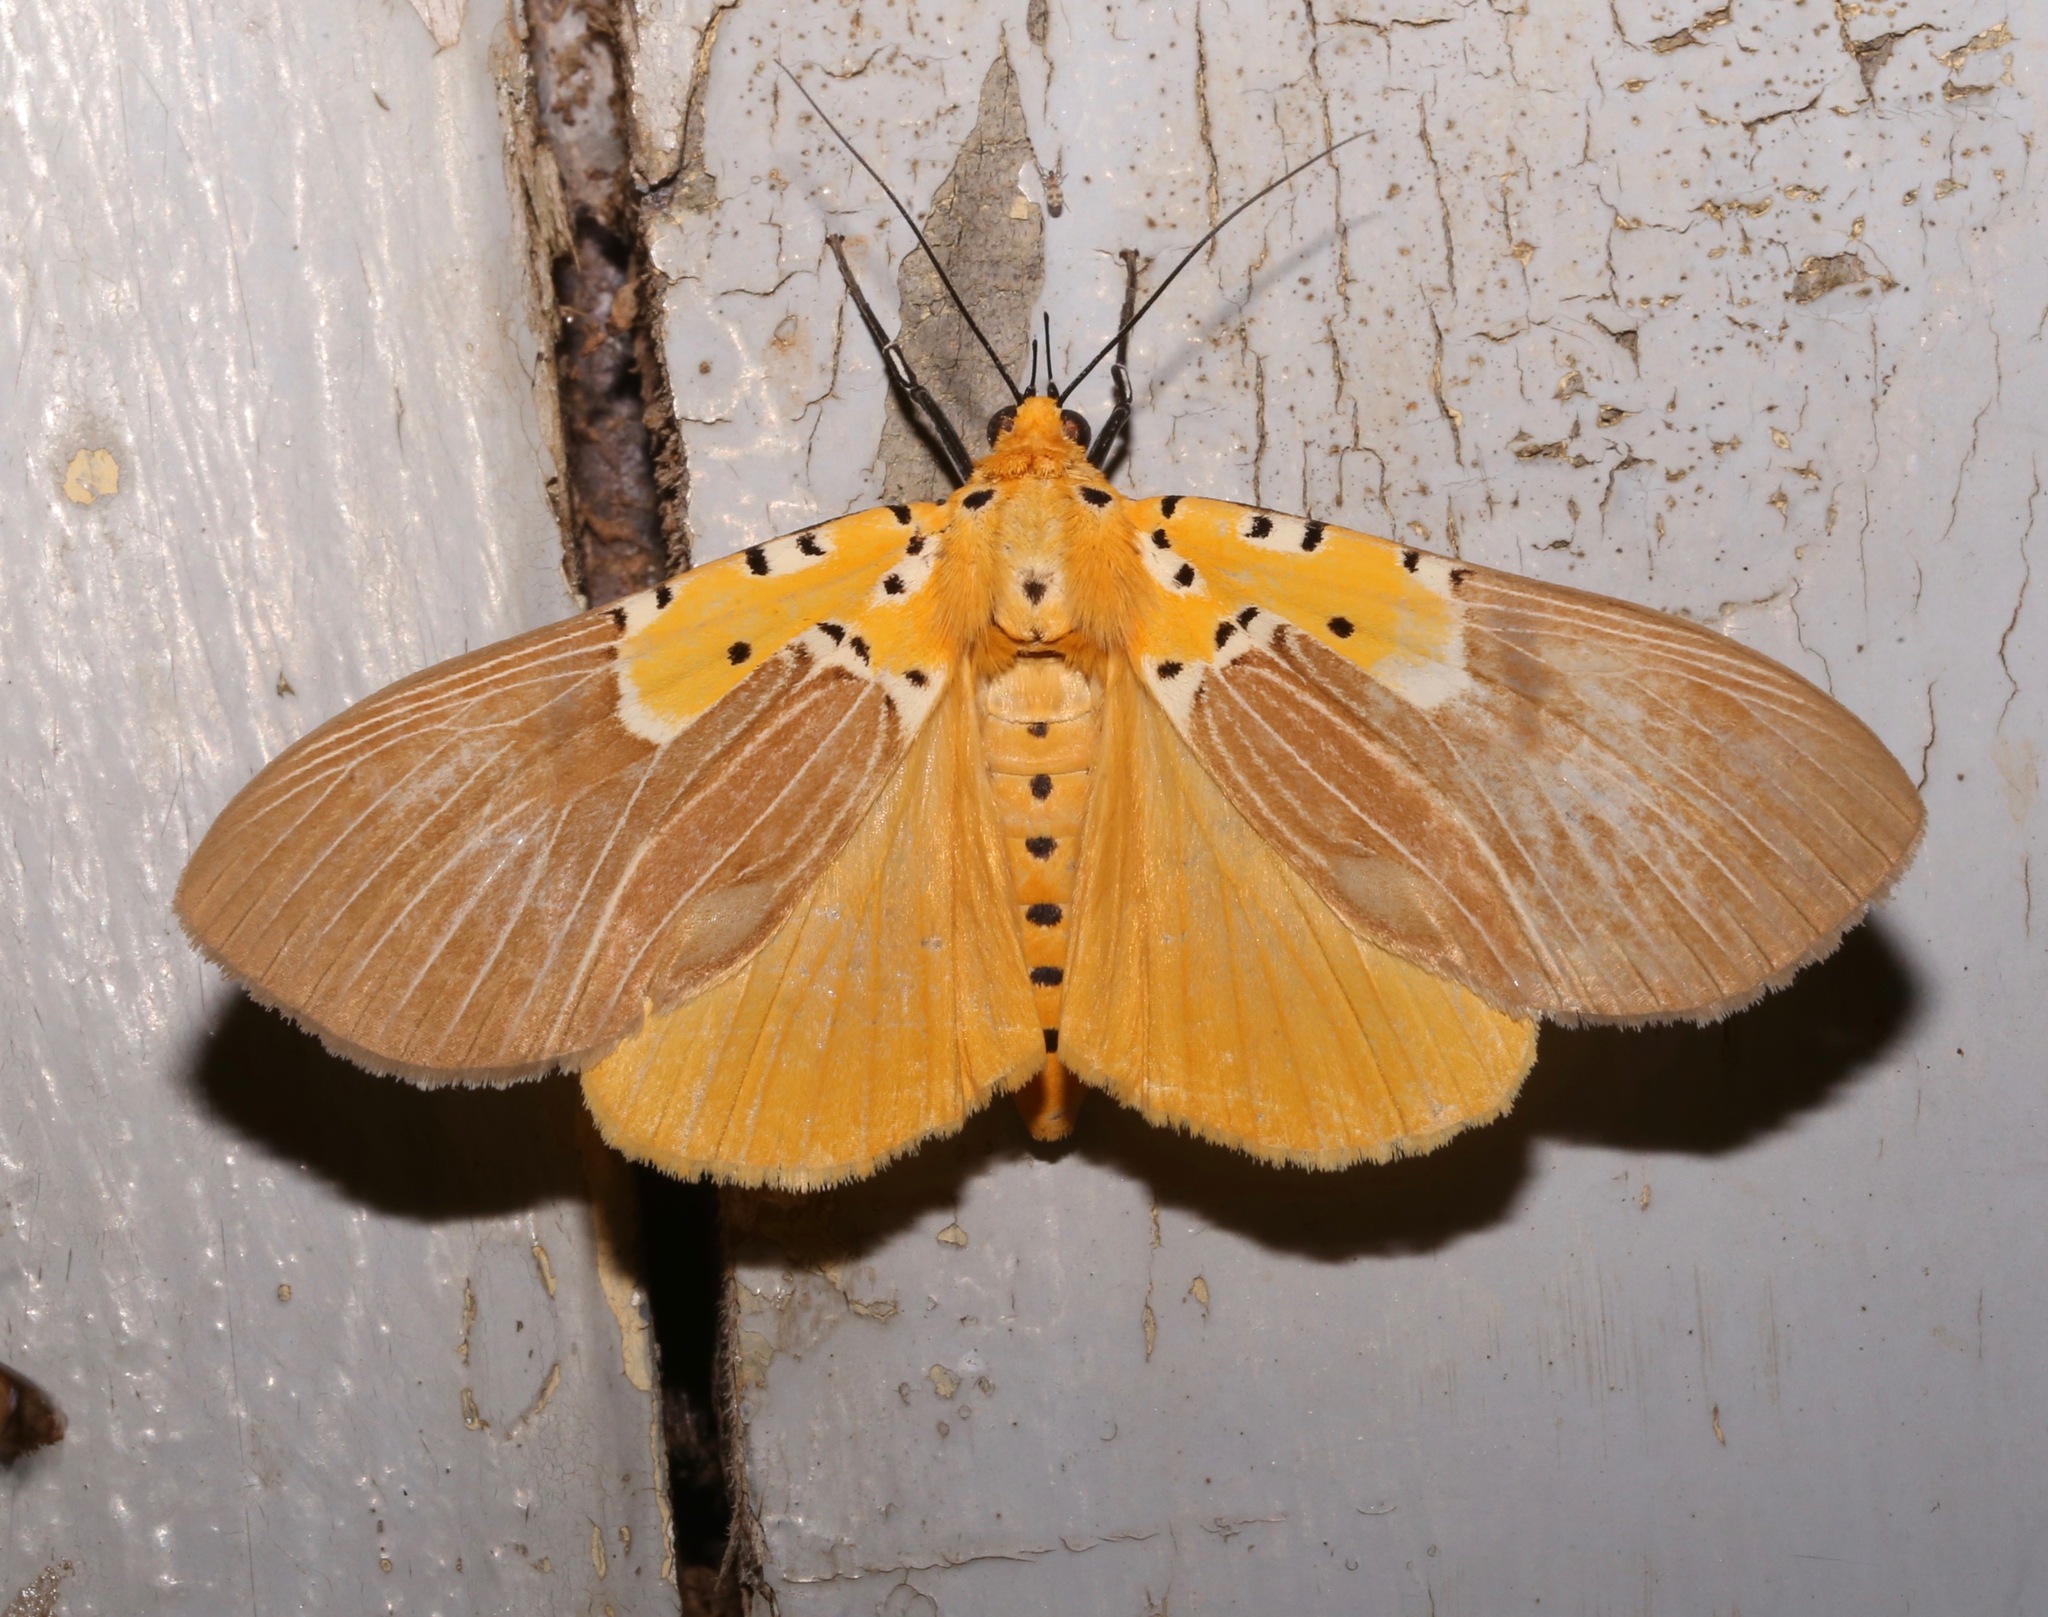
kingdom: Animalia
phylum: Arthropoda
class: Insecta
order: Lepidoptera
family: Erebidae
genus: Asota
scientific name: Asota speciosa
